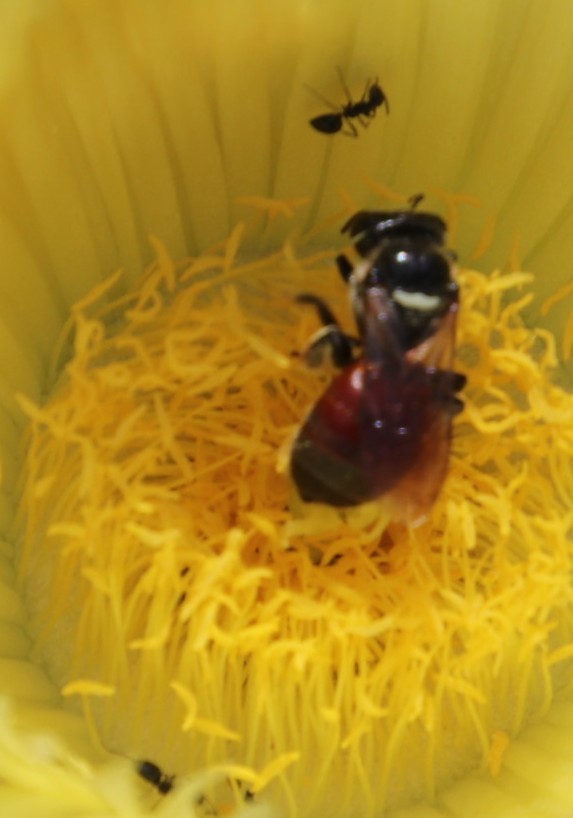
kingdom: Plantae
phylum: Tracheophyta
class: Magnoliopsida
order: Caryophyllales
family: Aizoaceae
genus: Carpobrotus
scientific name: Carpobrotus edulis
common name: Hottentot-fig
